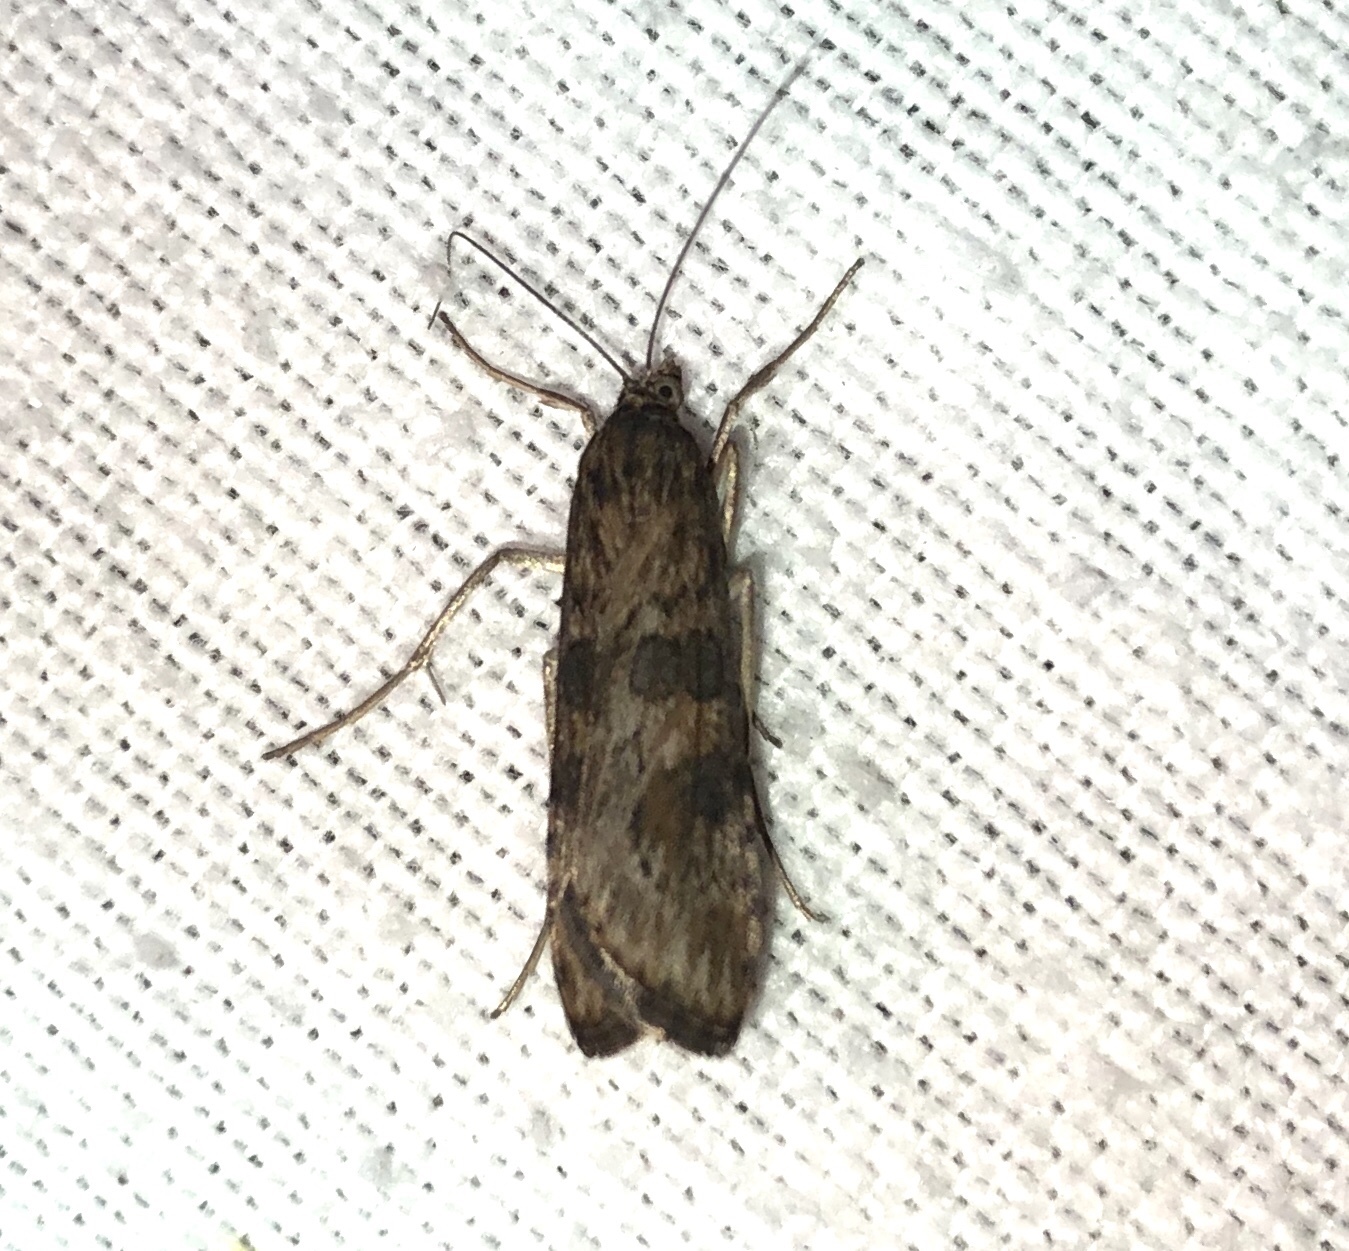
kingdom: Animalia
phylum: Arthropoda
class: Insecta
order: Lepidoptera
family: Crambidae
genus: Nomophila
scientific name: Nomophila nearctica
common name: American rush veneer
